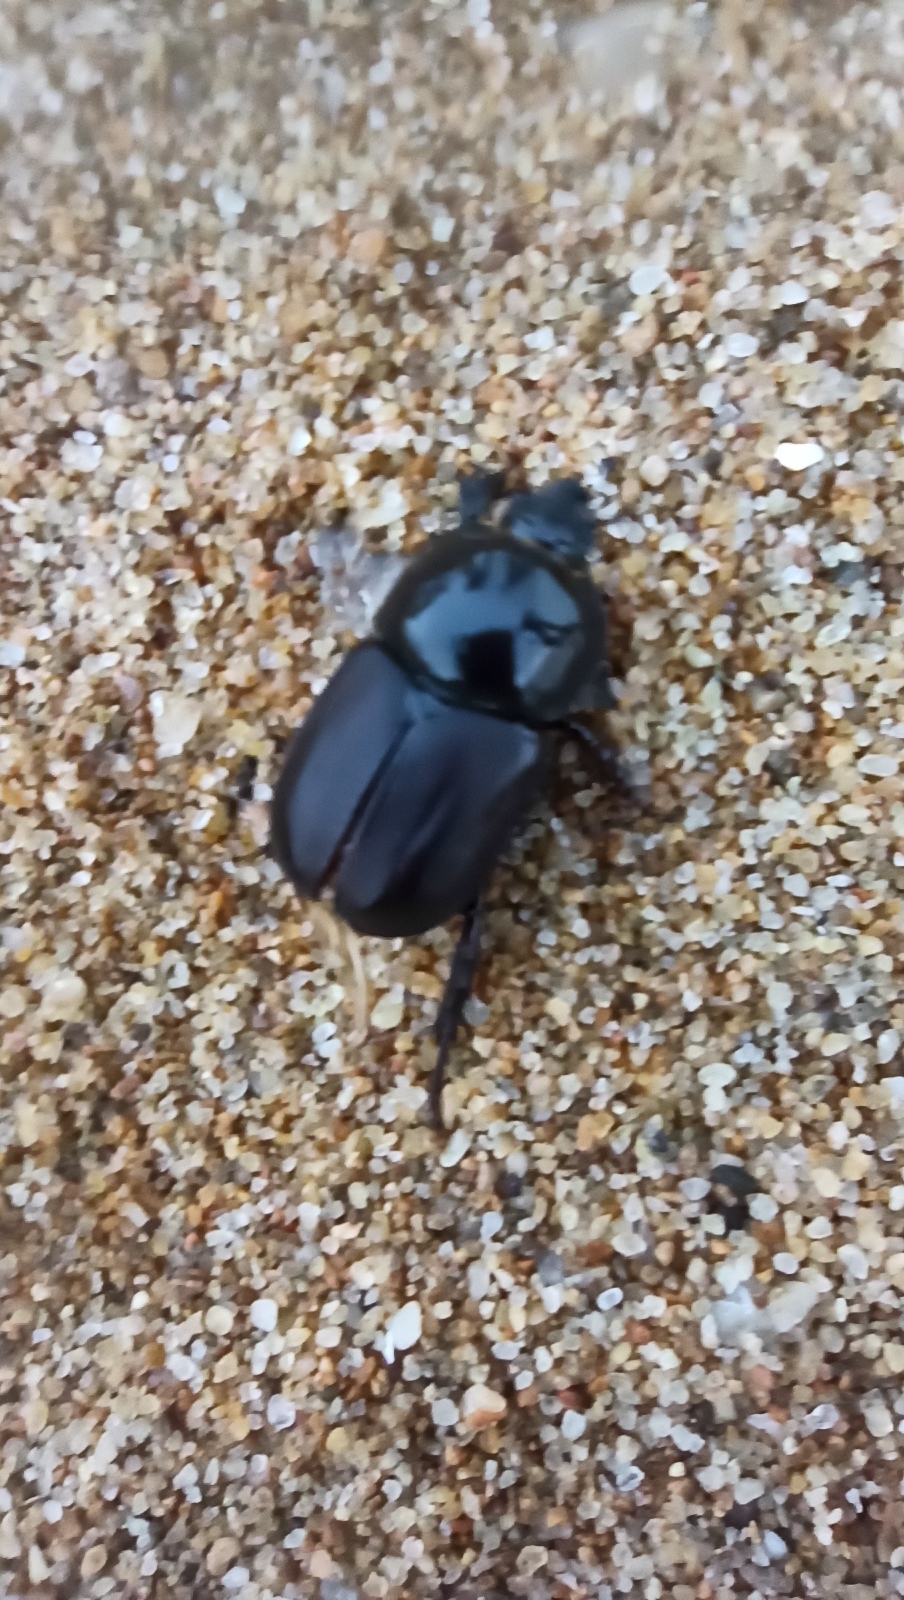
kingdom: Animalia
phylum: Arthropoda
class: Insecta
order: Coleoptera
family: Scarabaeidae
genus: Diloboderus
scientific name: Diloboderus abderus
